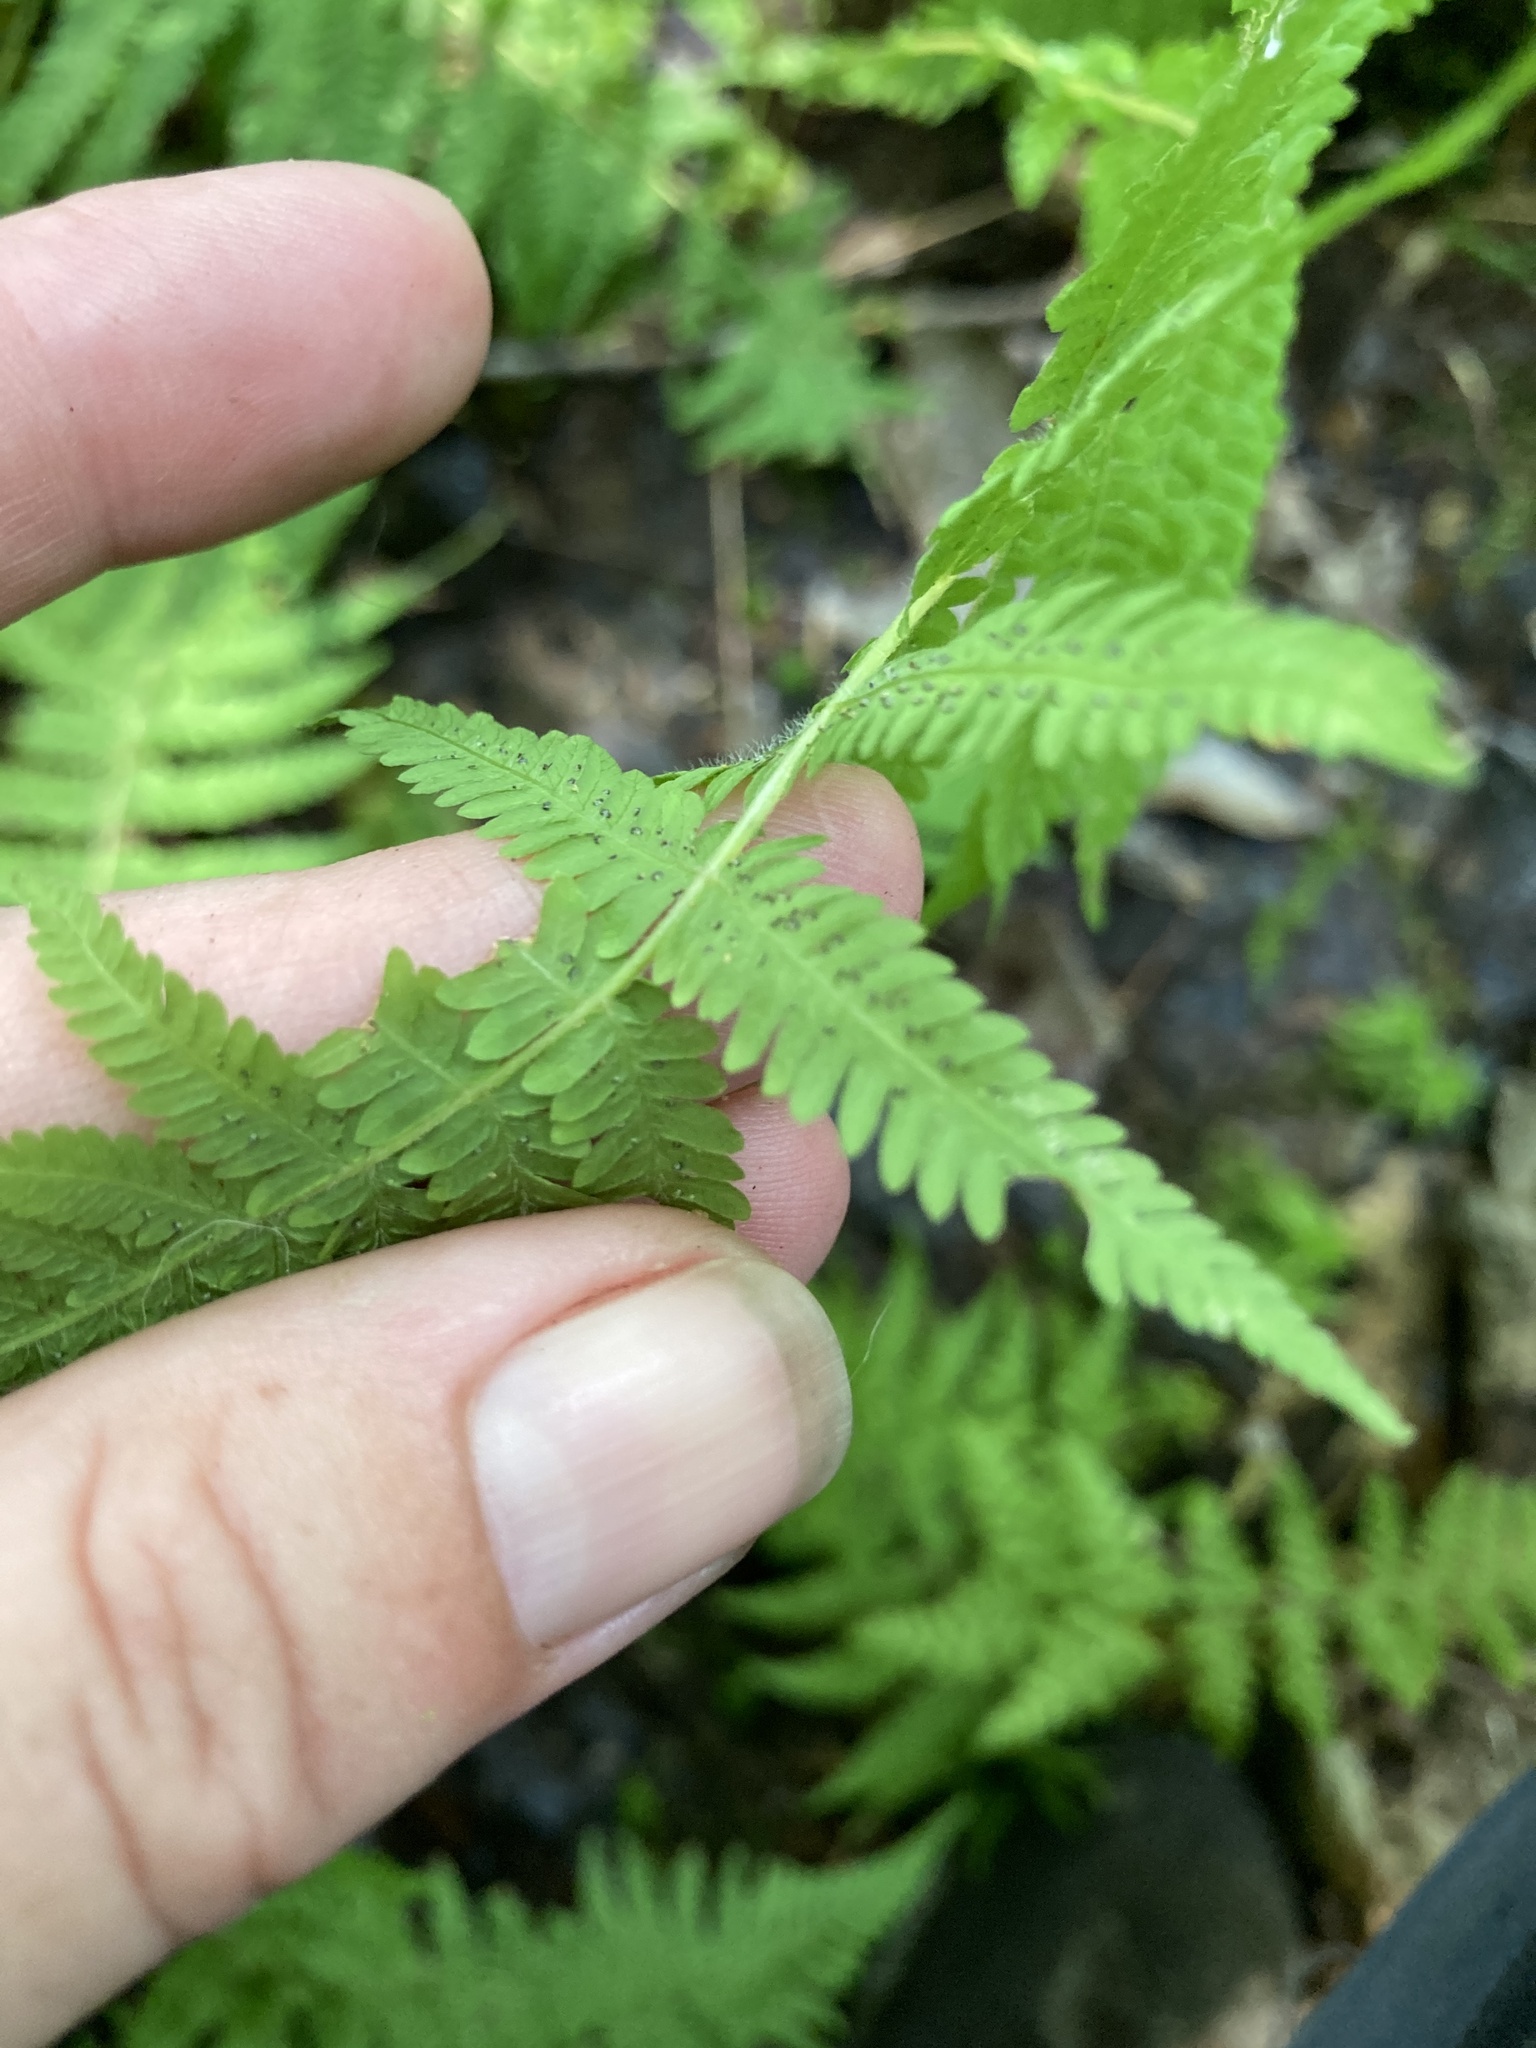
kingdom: Plantae
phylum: Tracheophyta
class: Polypodiopsida
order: Polypodiales
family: Thelypteridaceae
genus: Amauropelta
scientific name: Amauropelta noveboracensis
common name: New york fern
